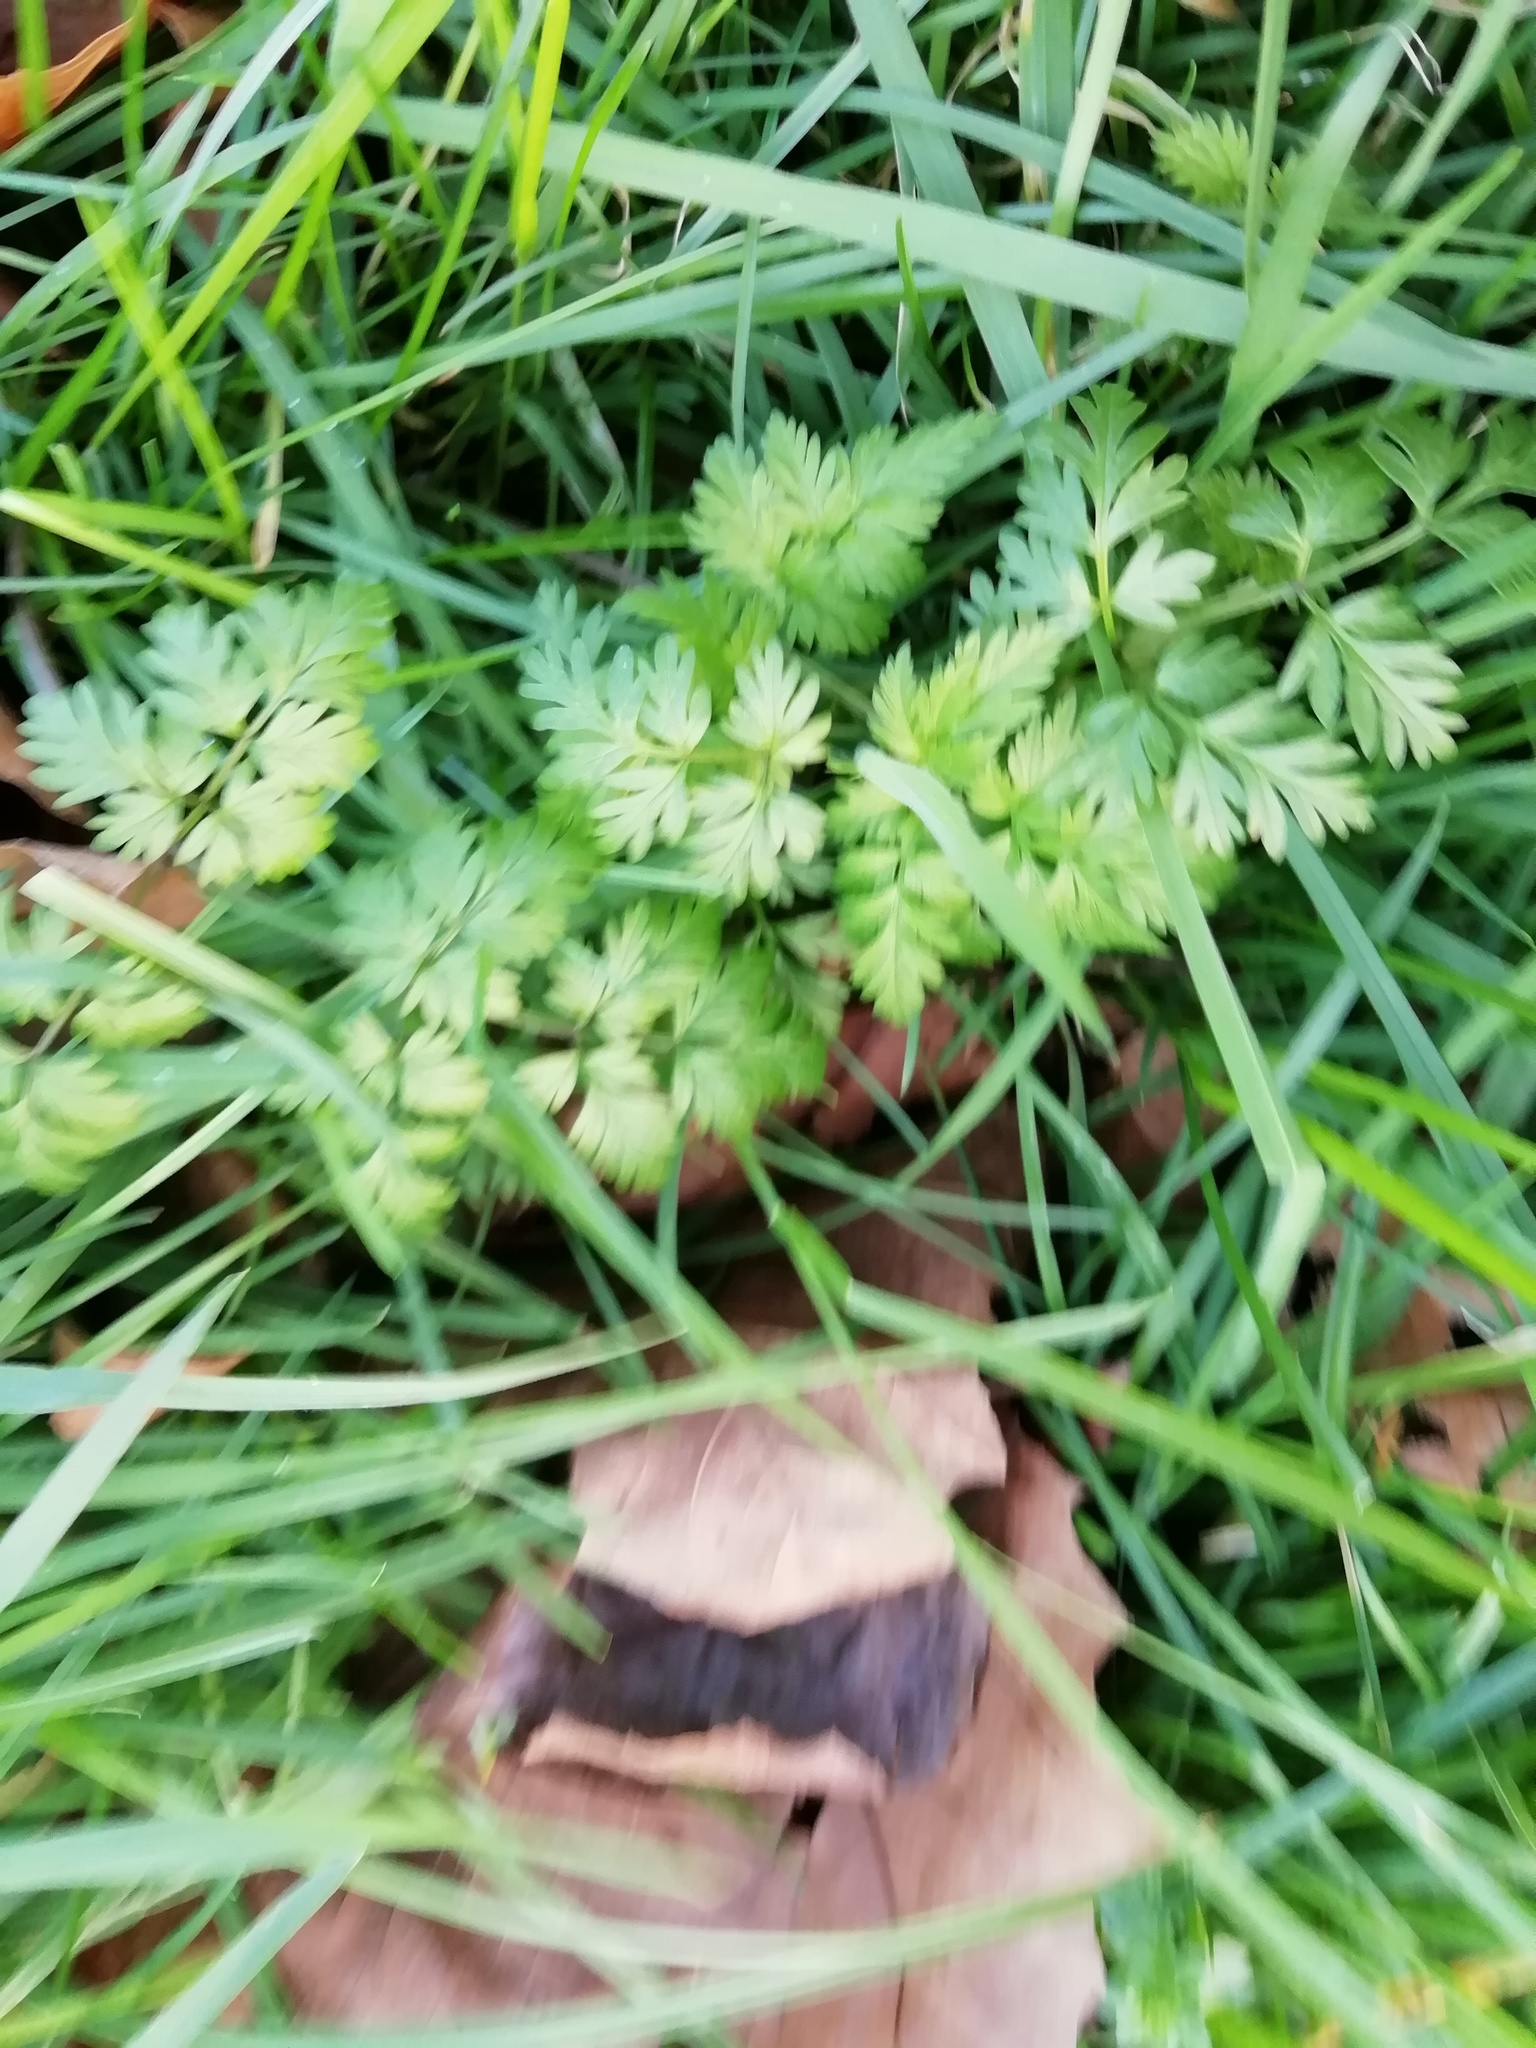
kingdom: Plantae
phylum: Tracheophyta
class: Magnoliopsida
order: Apiales
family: Apiaceae
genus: Anthriscus
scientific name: Anthriscus sylvestris
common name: Cow parsley
